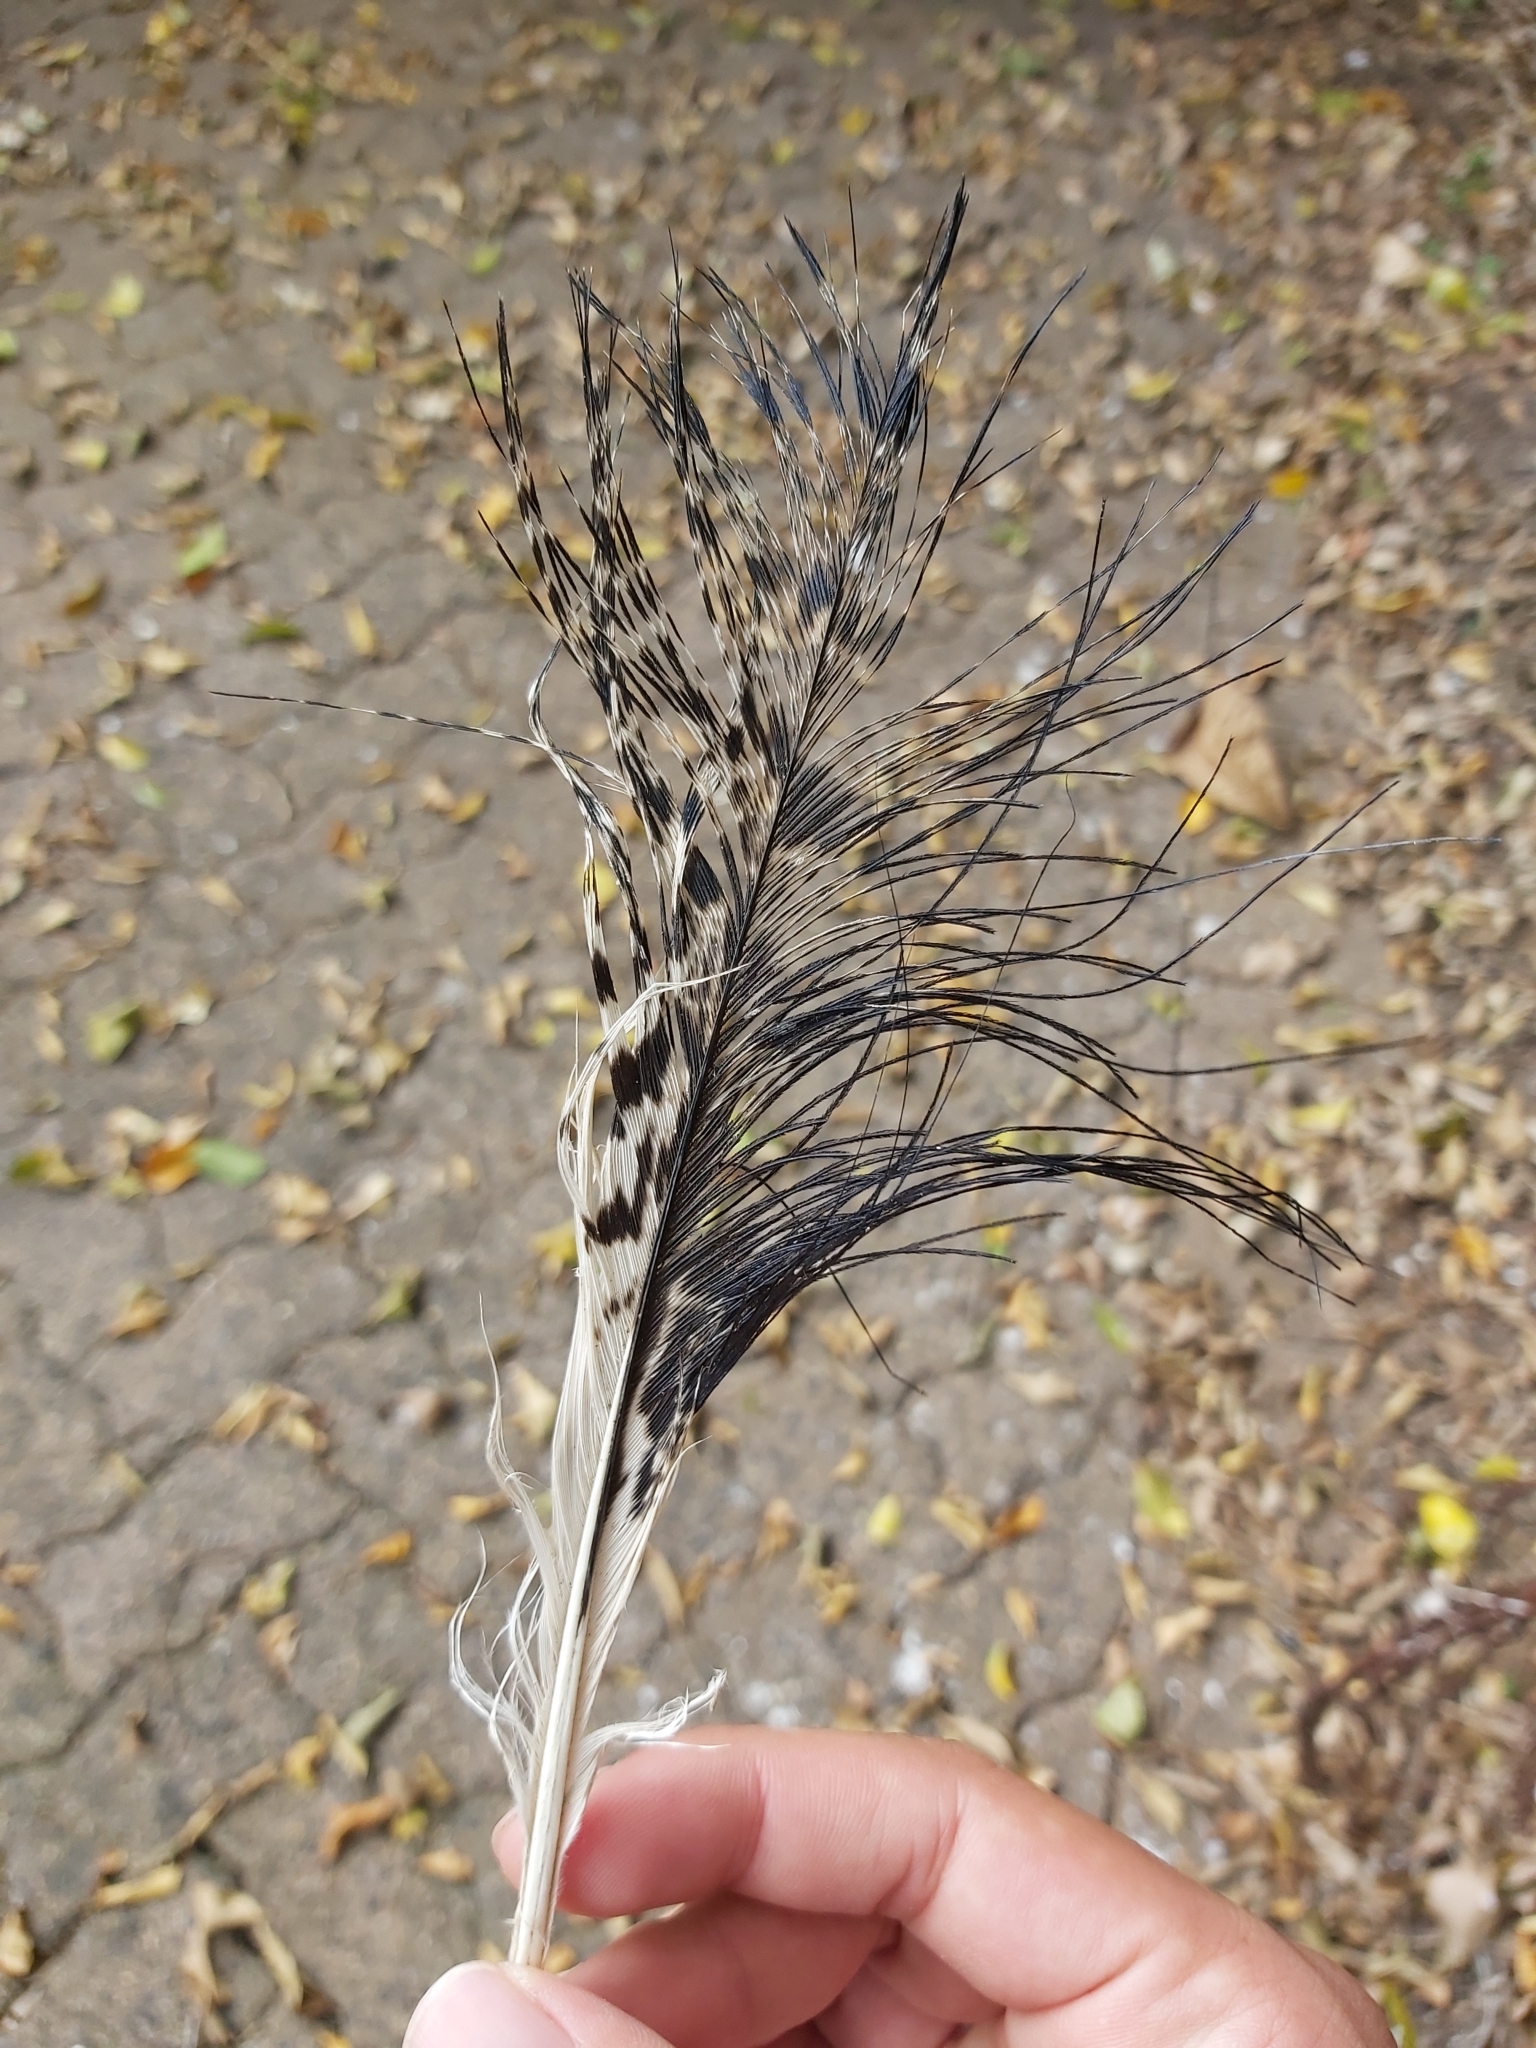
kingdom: Animalia
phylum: Chordata
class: Aves
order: Pelecaniformes
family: Threskiornithidae
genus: Threskiornis
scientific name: Threskiornis molucca
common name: Australian white ibis
